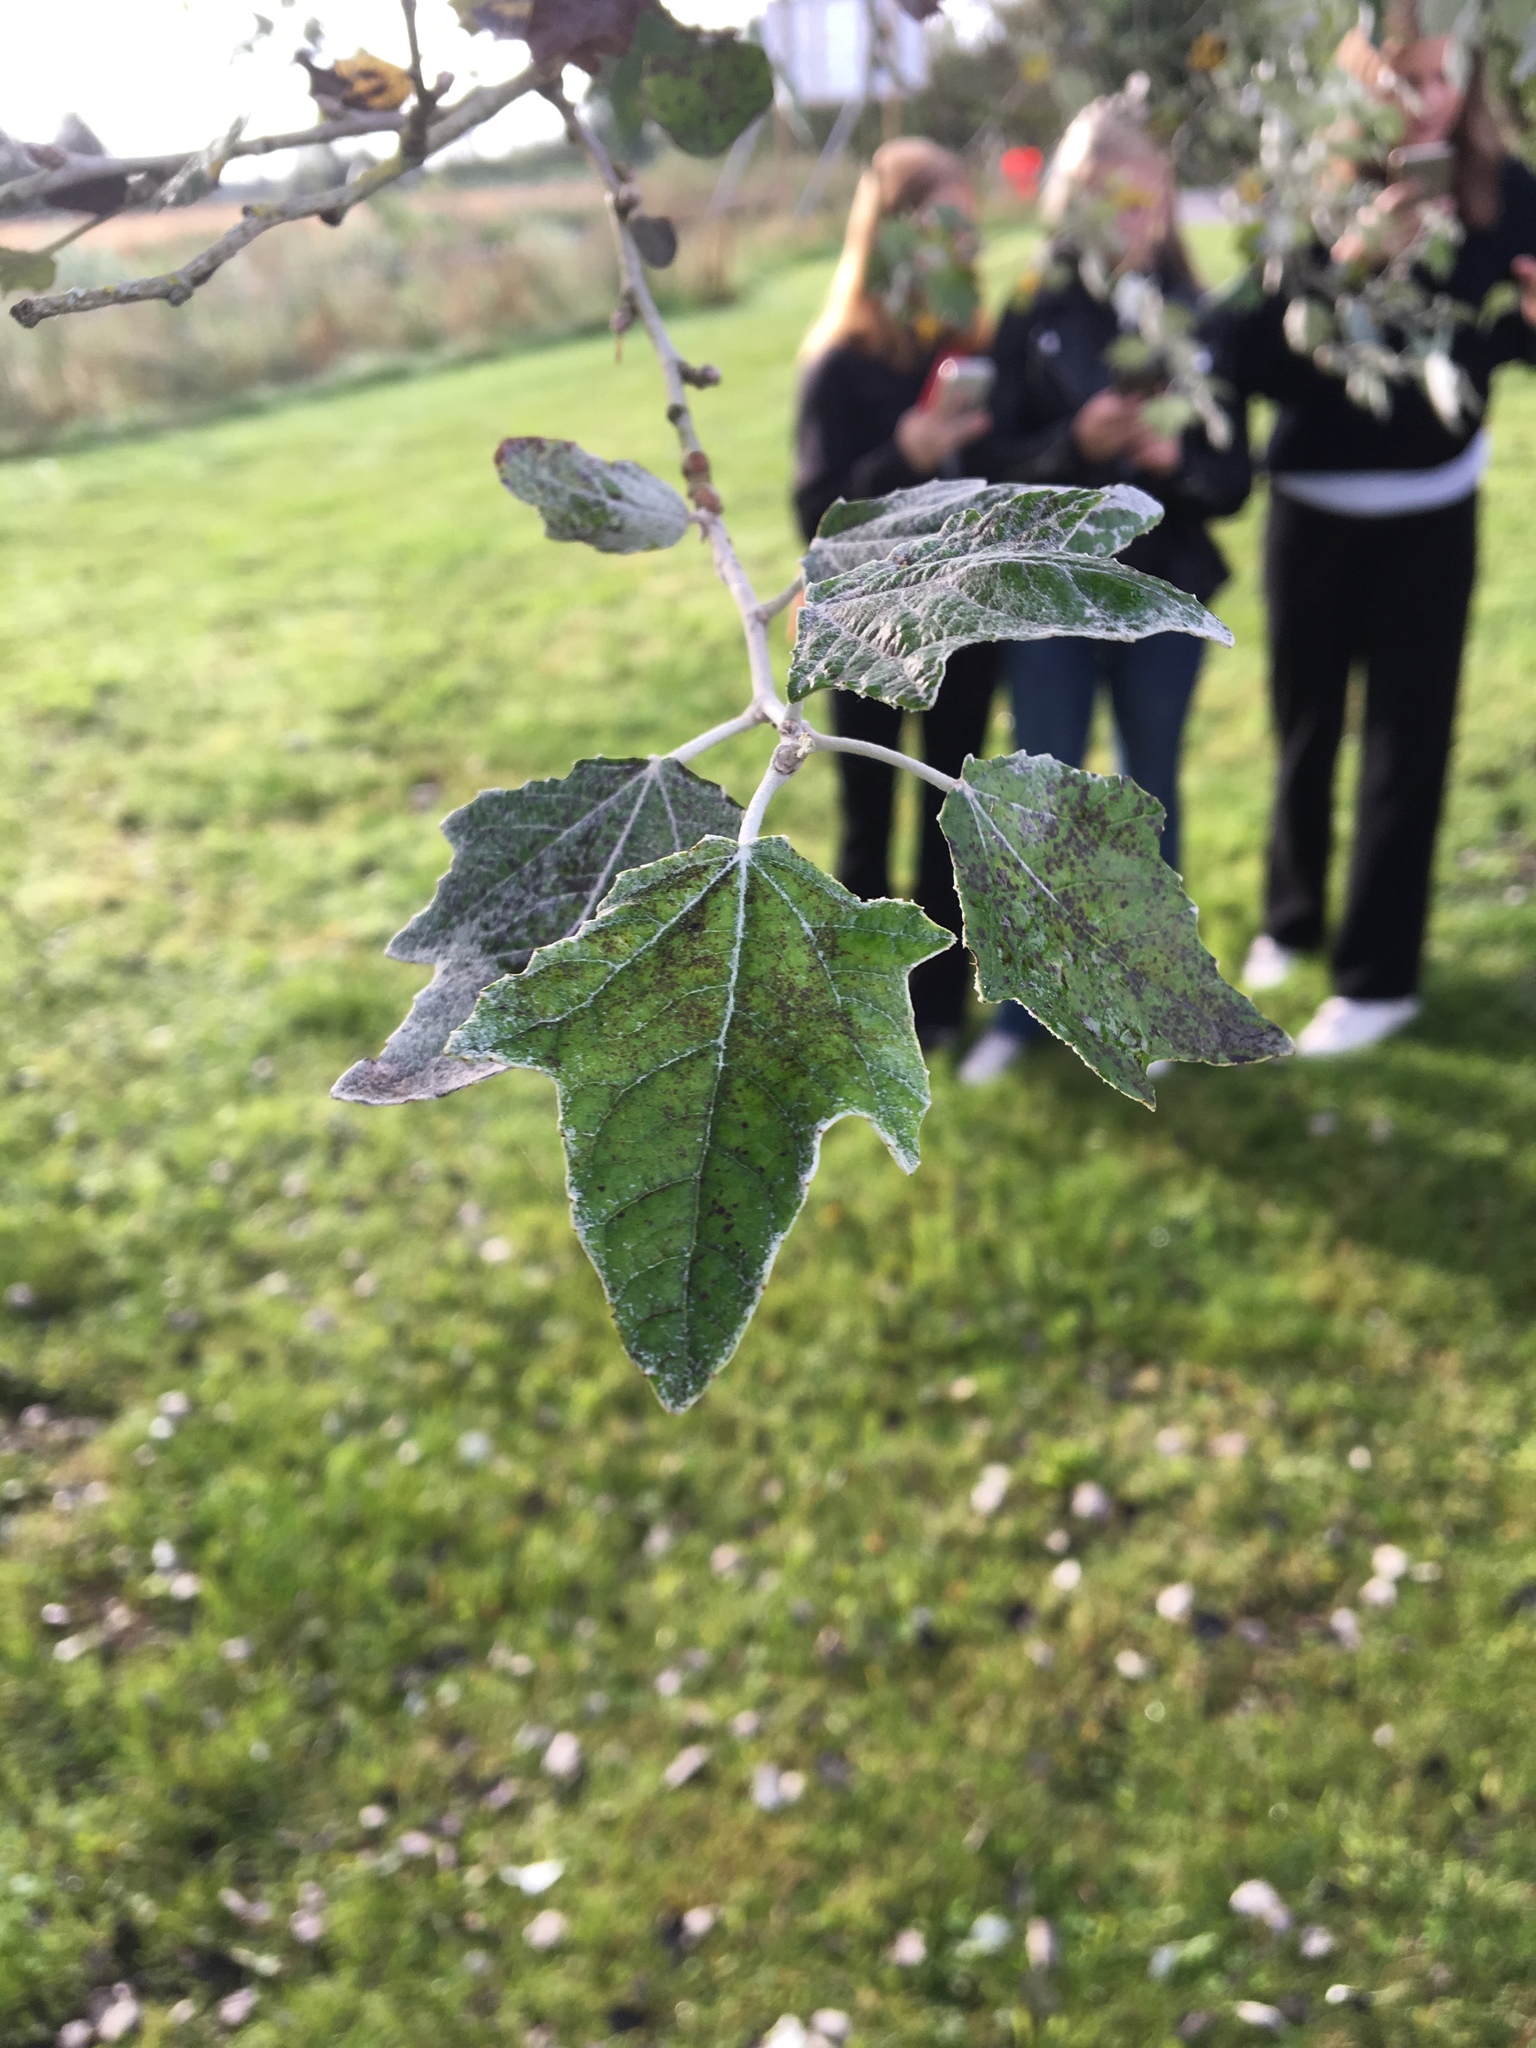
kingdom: Plantae
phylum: Tracheophyta
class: Magnoliopsida
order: Malpighiales
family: Salicaceae
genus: Populus
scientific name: Populus alba
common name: White poplar
